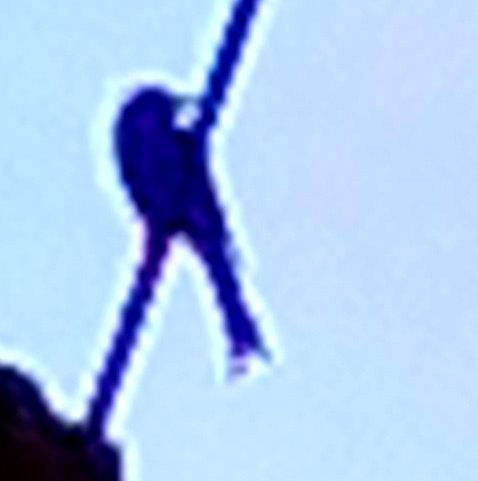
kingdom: Animalia
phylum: Chordata
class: Aves
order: Passeriformes
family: Dicruridae
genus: Dicrurus
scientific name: Dicrurus
